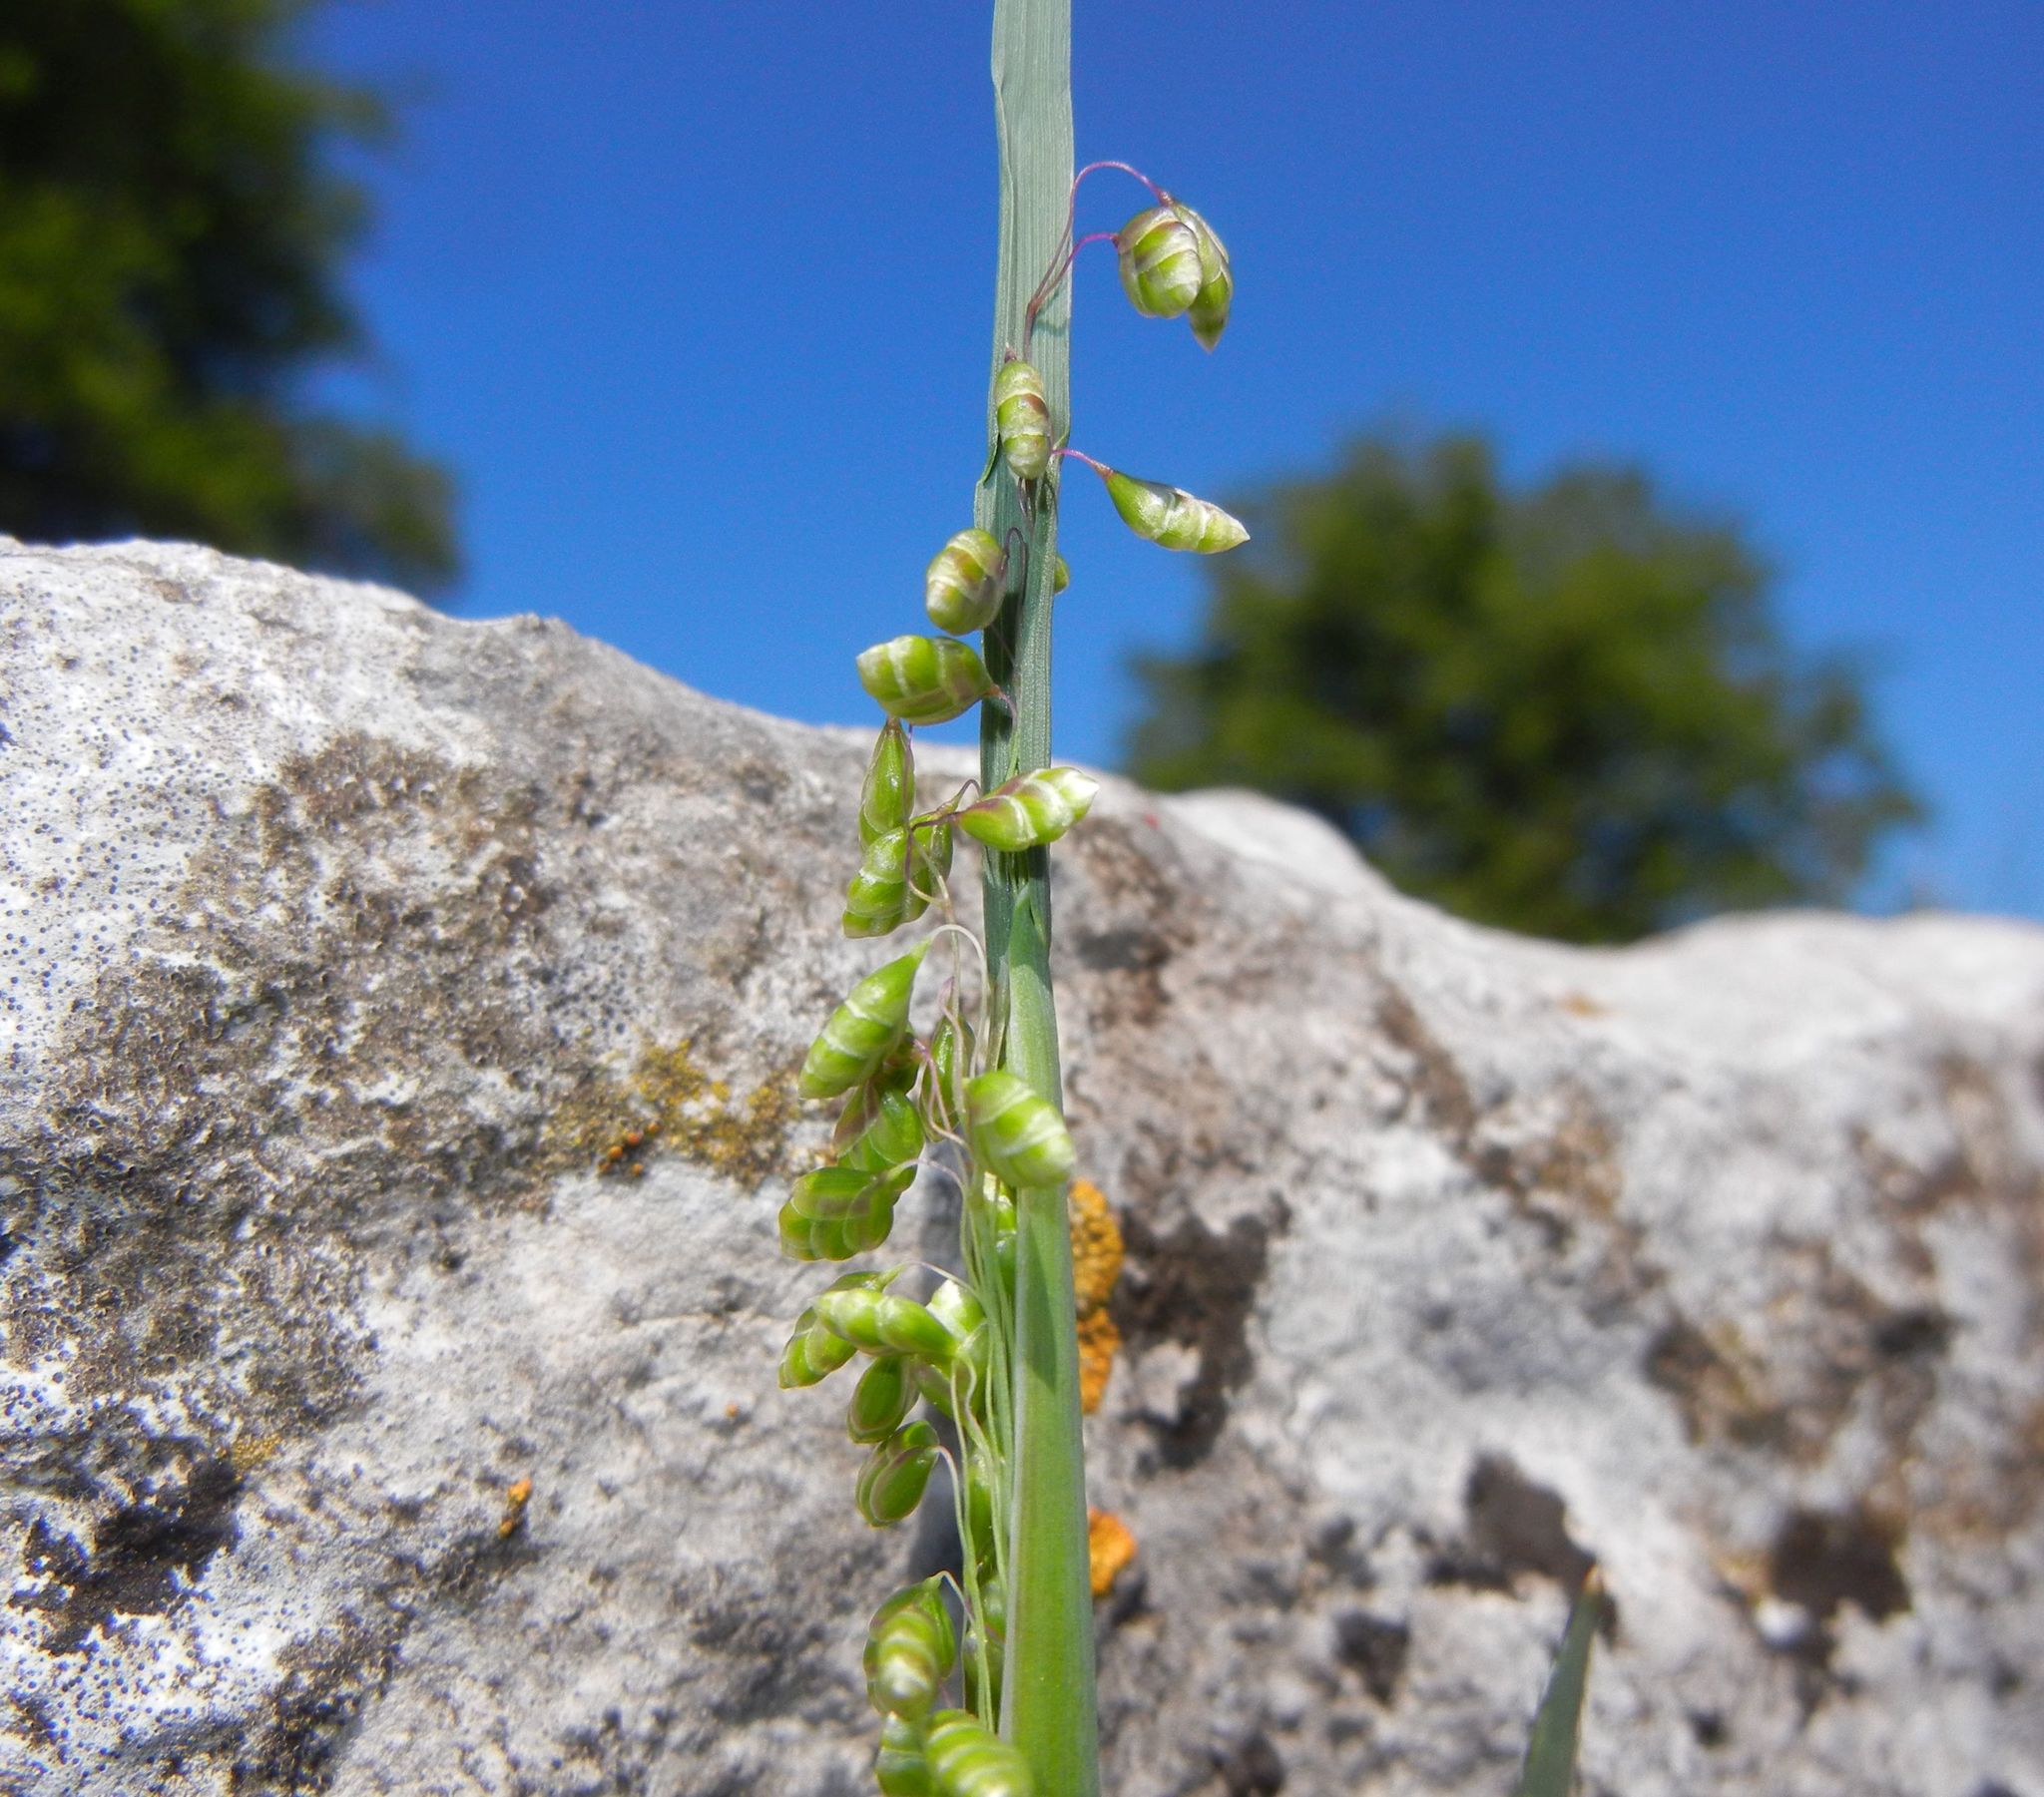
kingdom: Plantae
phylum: Tracheophyta
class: Liliopsida
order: Poales
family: Poaceae
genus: Briza
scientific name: Briza media
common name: Quaking grass
